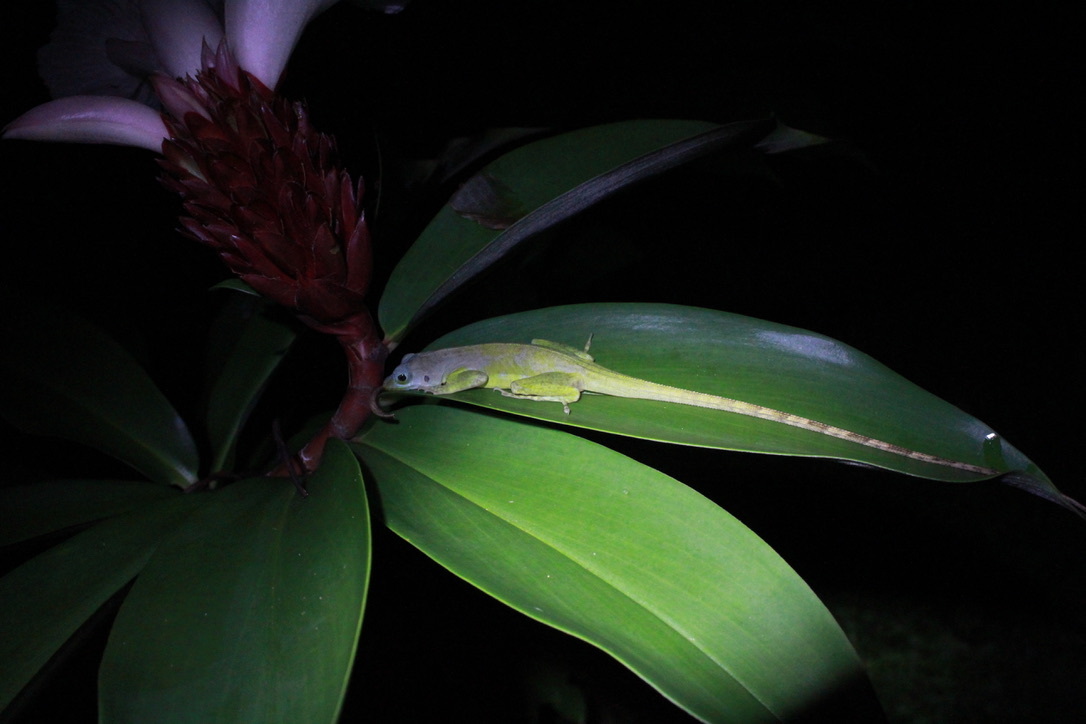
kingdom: Animalia
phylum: Chordata
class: Squamata
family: Dactyloidae
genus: Anolis
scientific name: Anolis richardii
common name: Grenada tree anole
